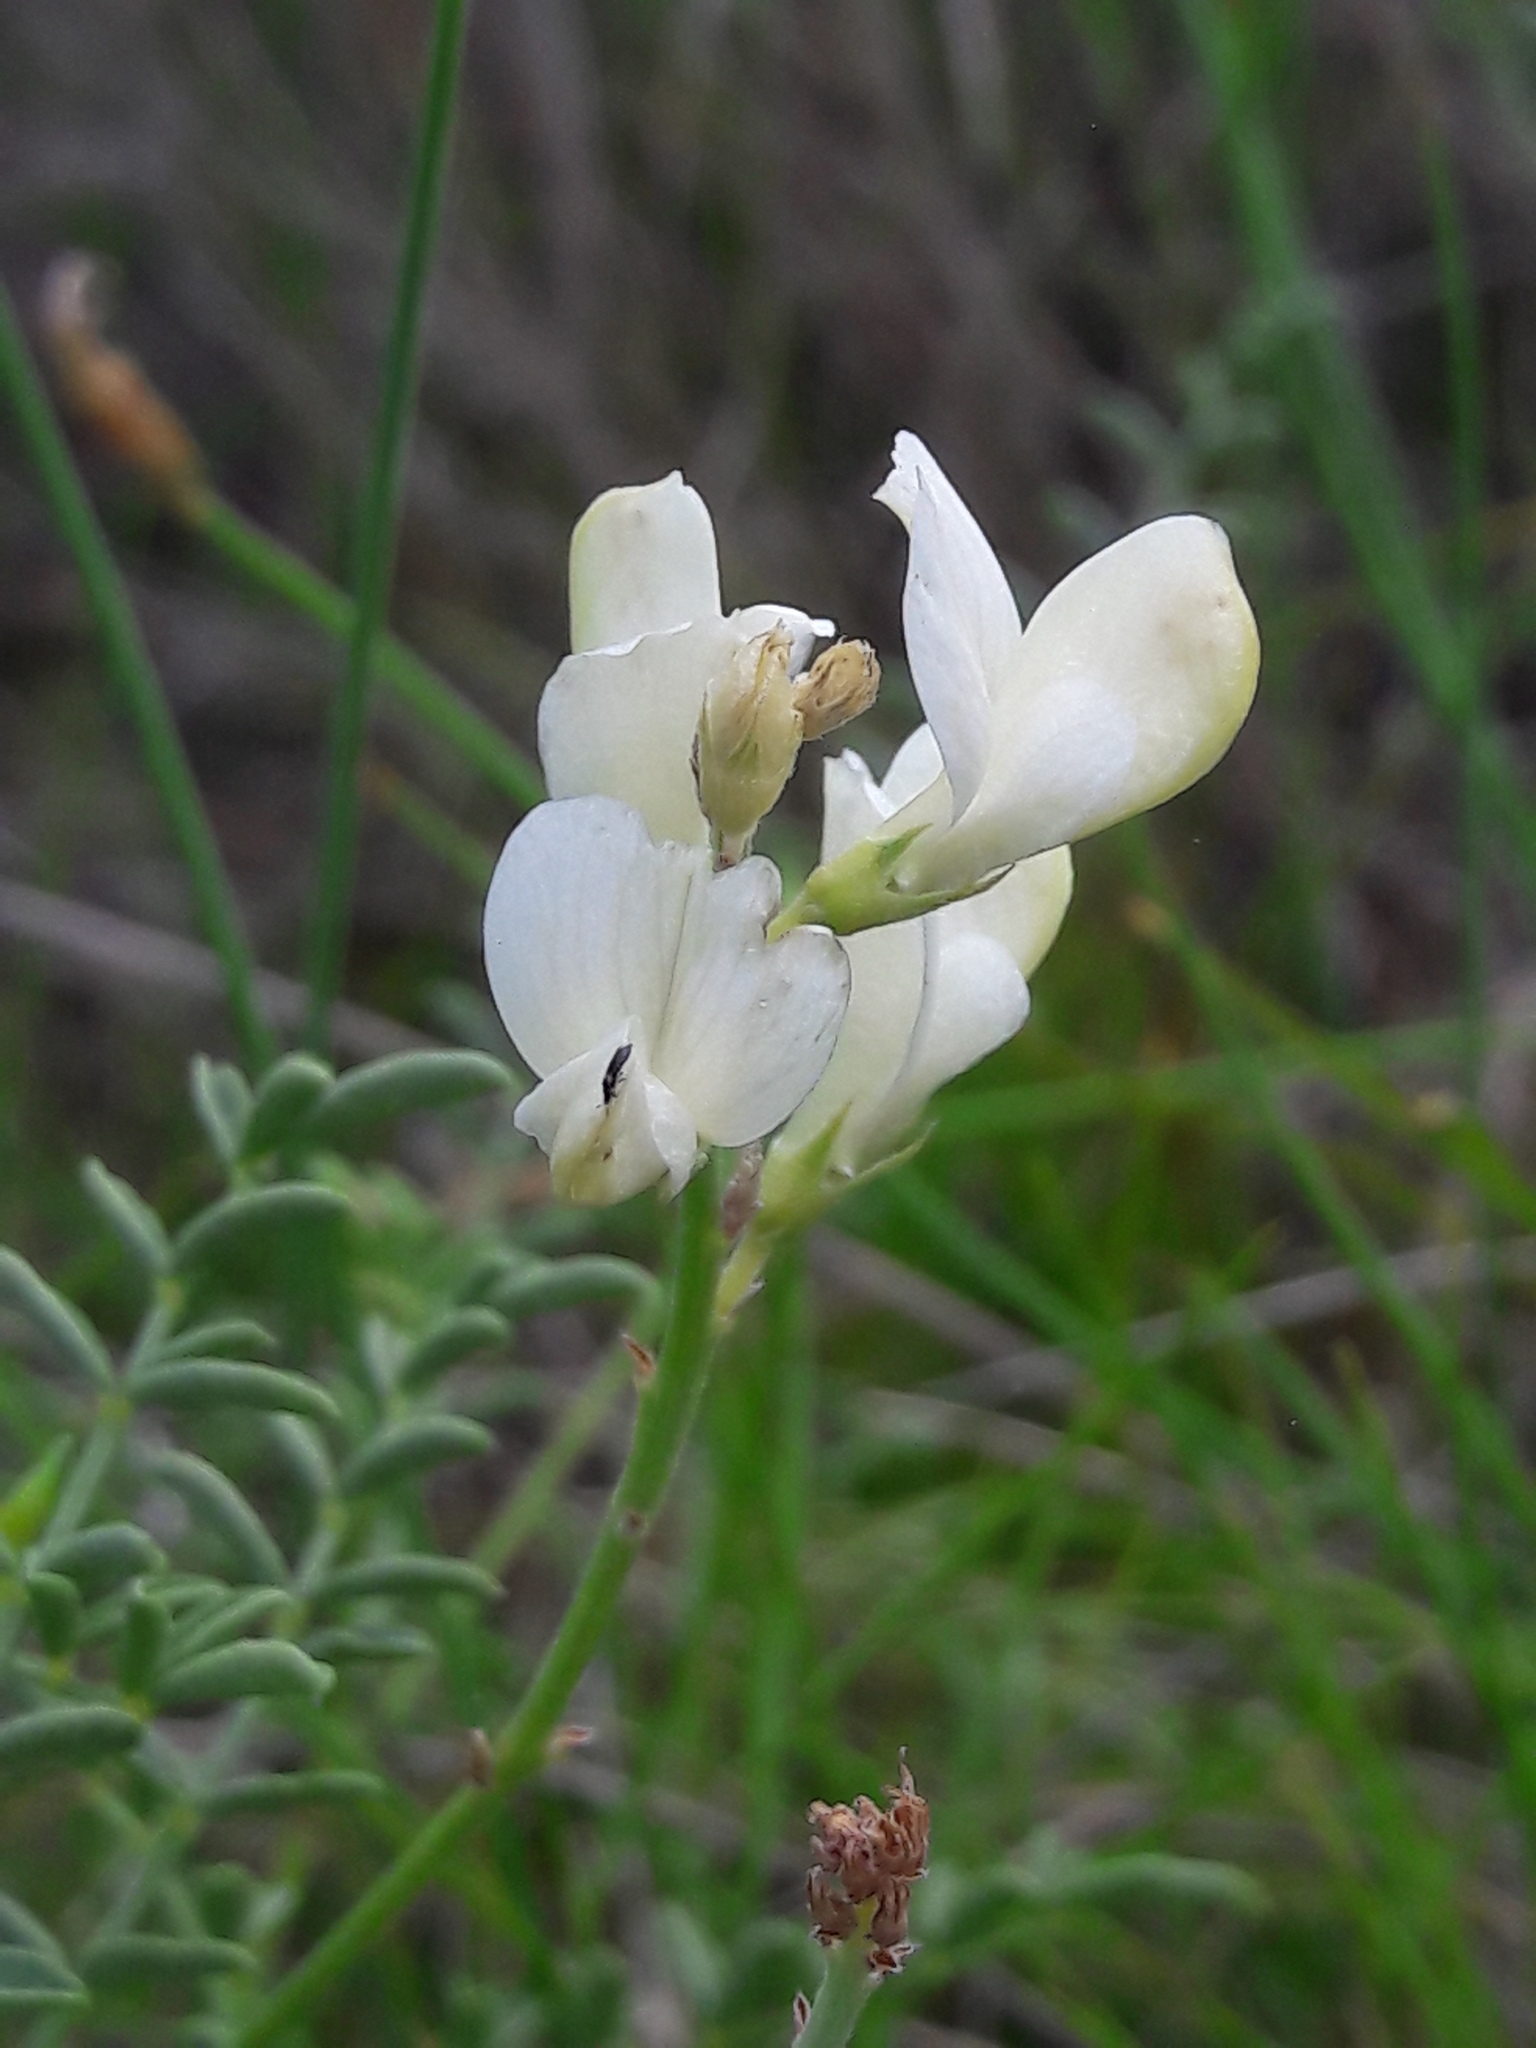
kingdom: Plantae
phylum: Tracheophyta
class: Magnoliopsida
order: Fabales
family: Fabaceae
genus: Hedysarum
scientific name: Hedysarum boveanum
